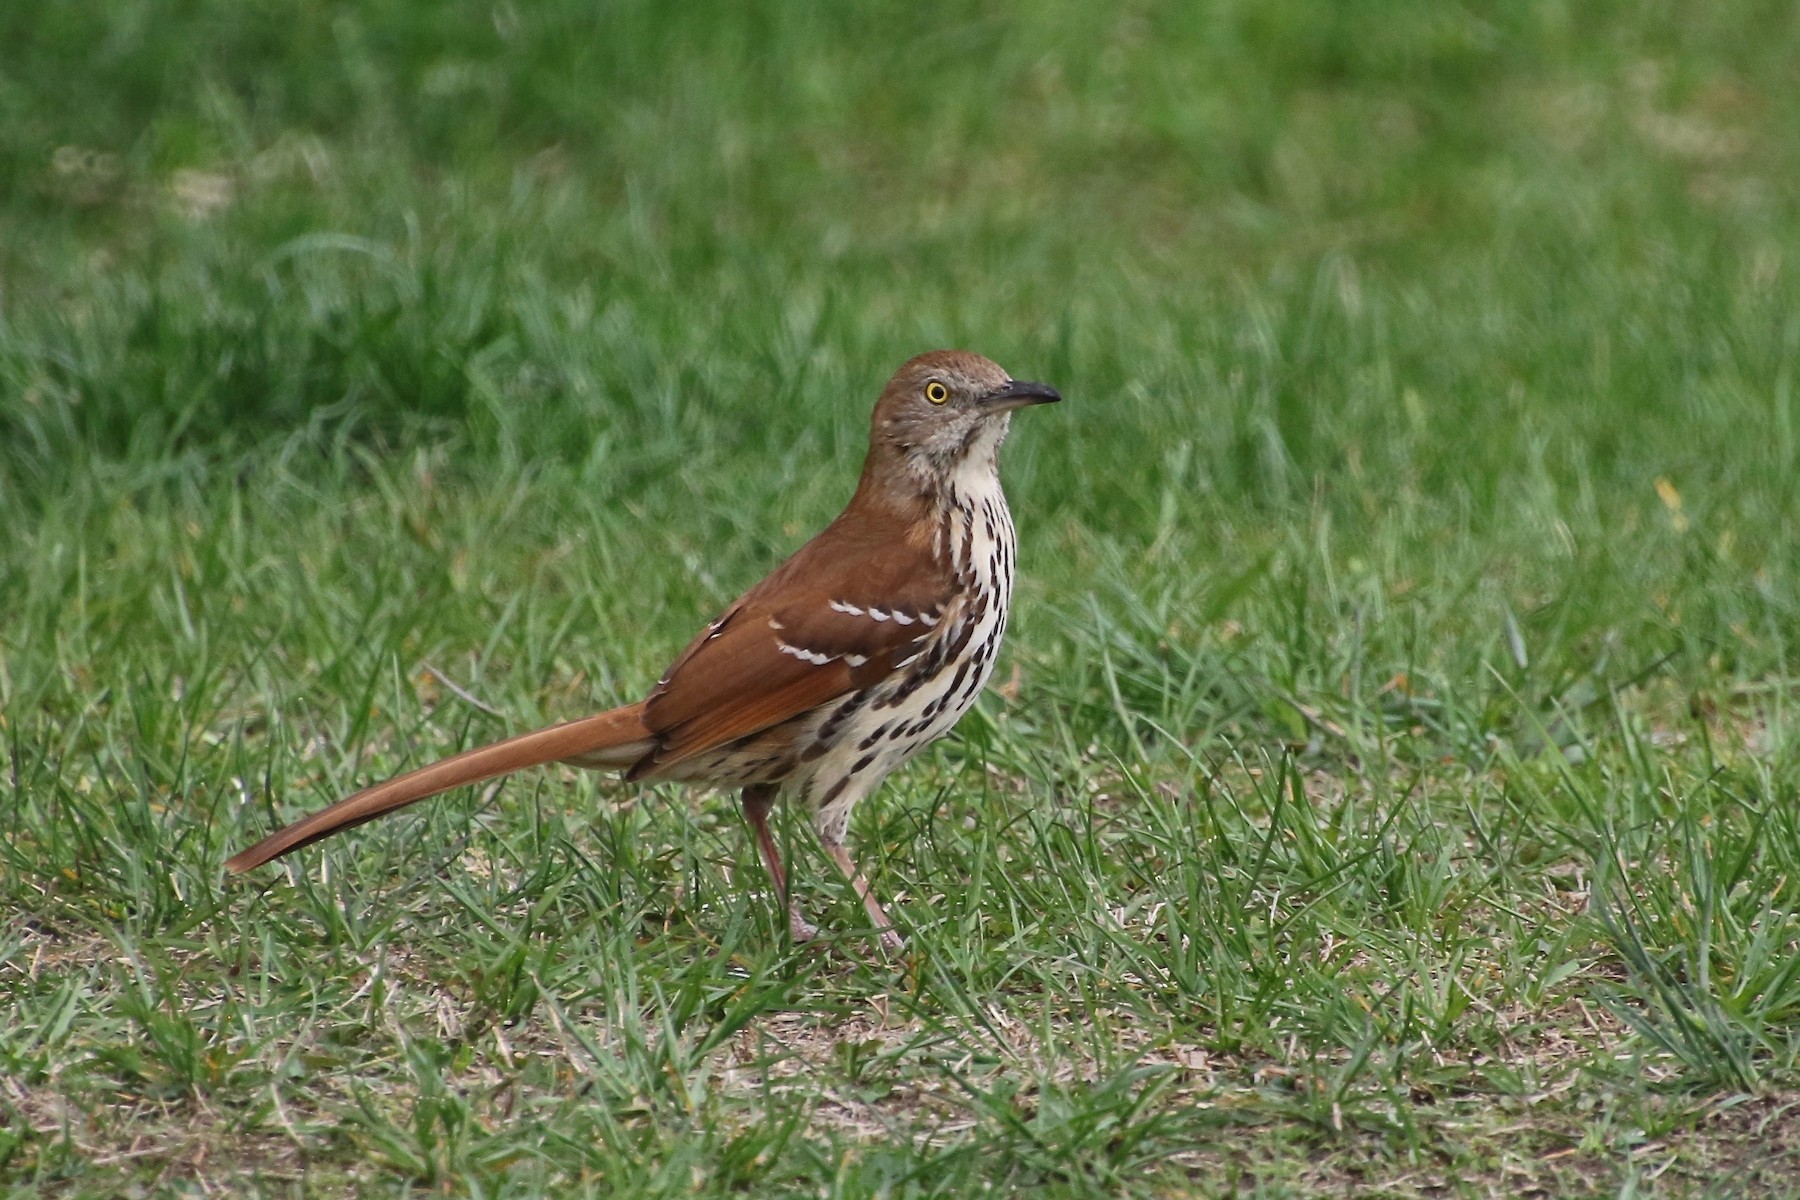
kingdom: Animalia
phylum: Chordata
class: Aves
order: Passeriformes
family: Mimidae
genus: Toxostoma
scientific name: Toxostoma rufum
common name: Brown thrasher
